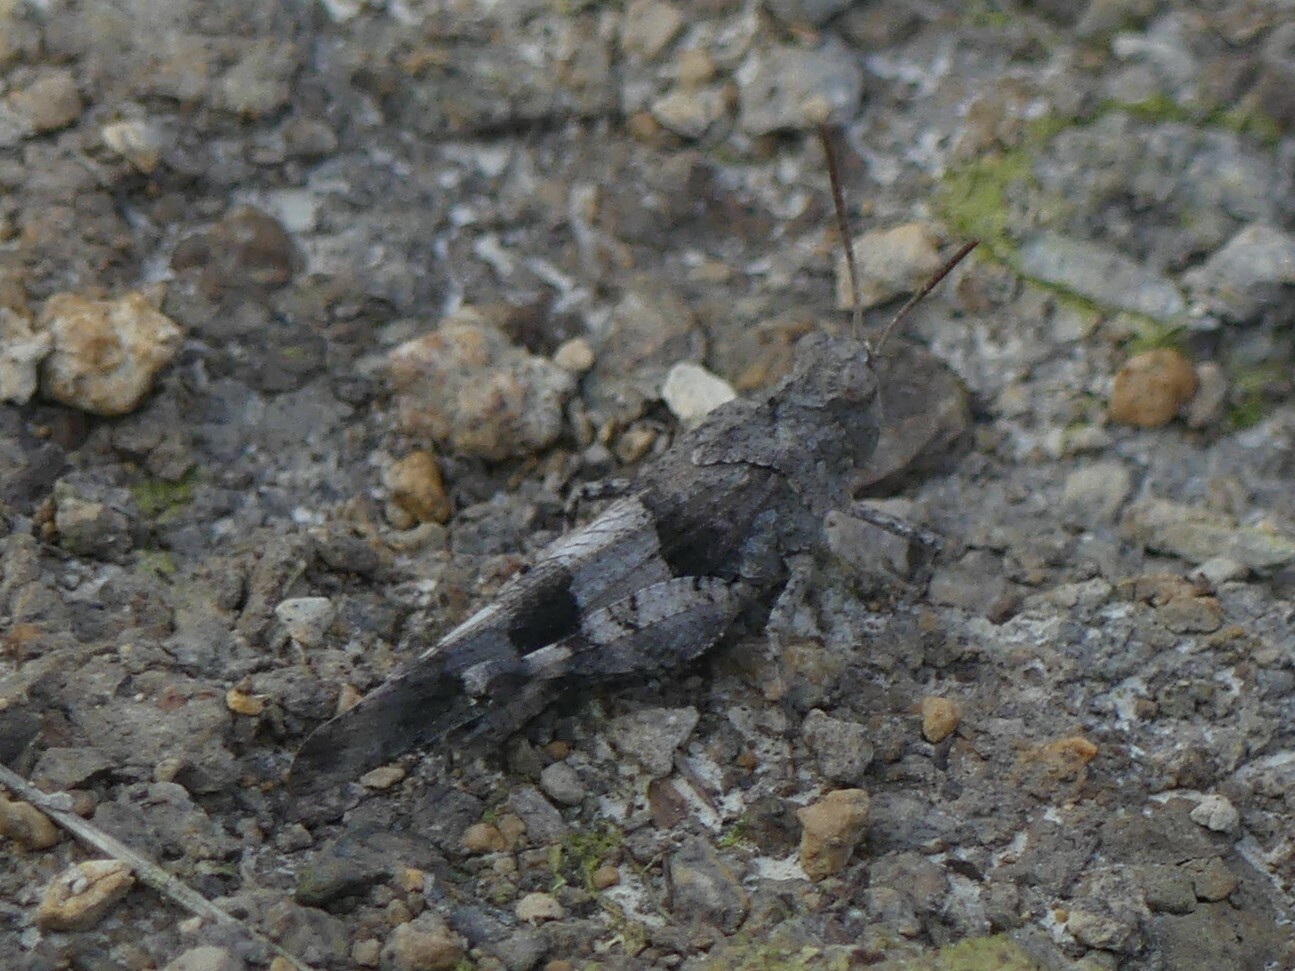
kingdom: Animalia
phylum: Arthropoda
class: Insecta
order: Orthoptera
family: Acrididae
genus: Oedipoda
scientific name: Oedipoda caerulescens
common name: Blue-winged grasshopper
